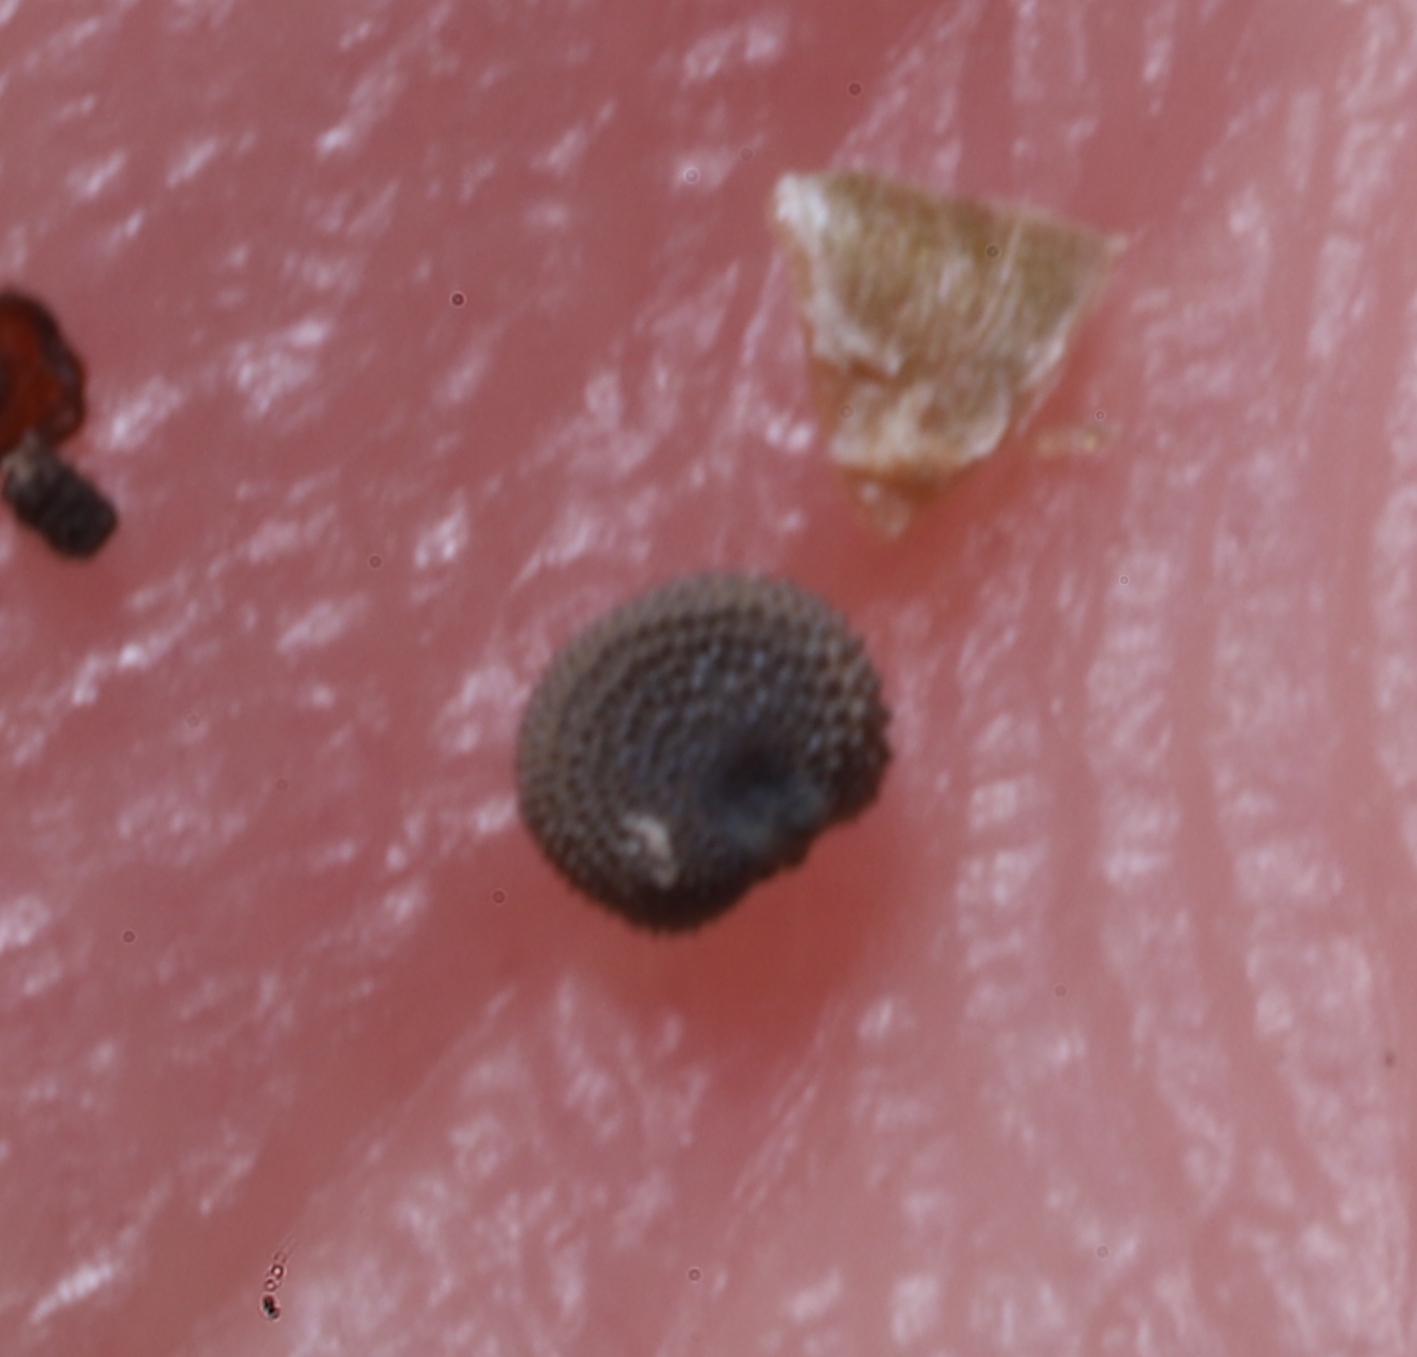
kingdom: Plantae
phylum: Tracheophyta
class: Magnoliopsida
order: Caryophyllales
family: Caryophyllaceae
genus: Silene
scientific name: Silene vulgaris
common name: Bladder campion
